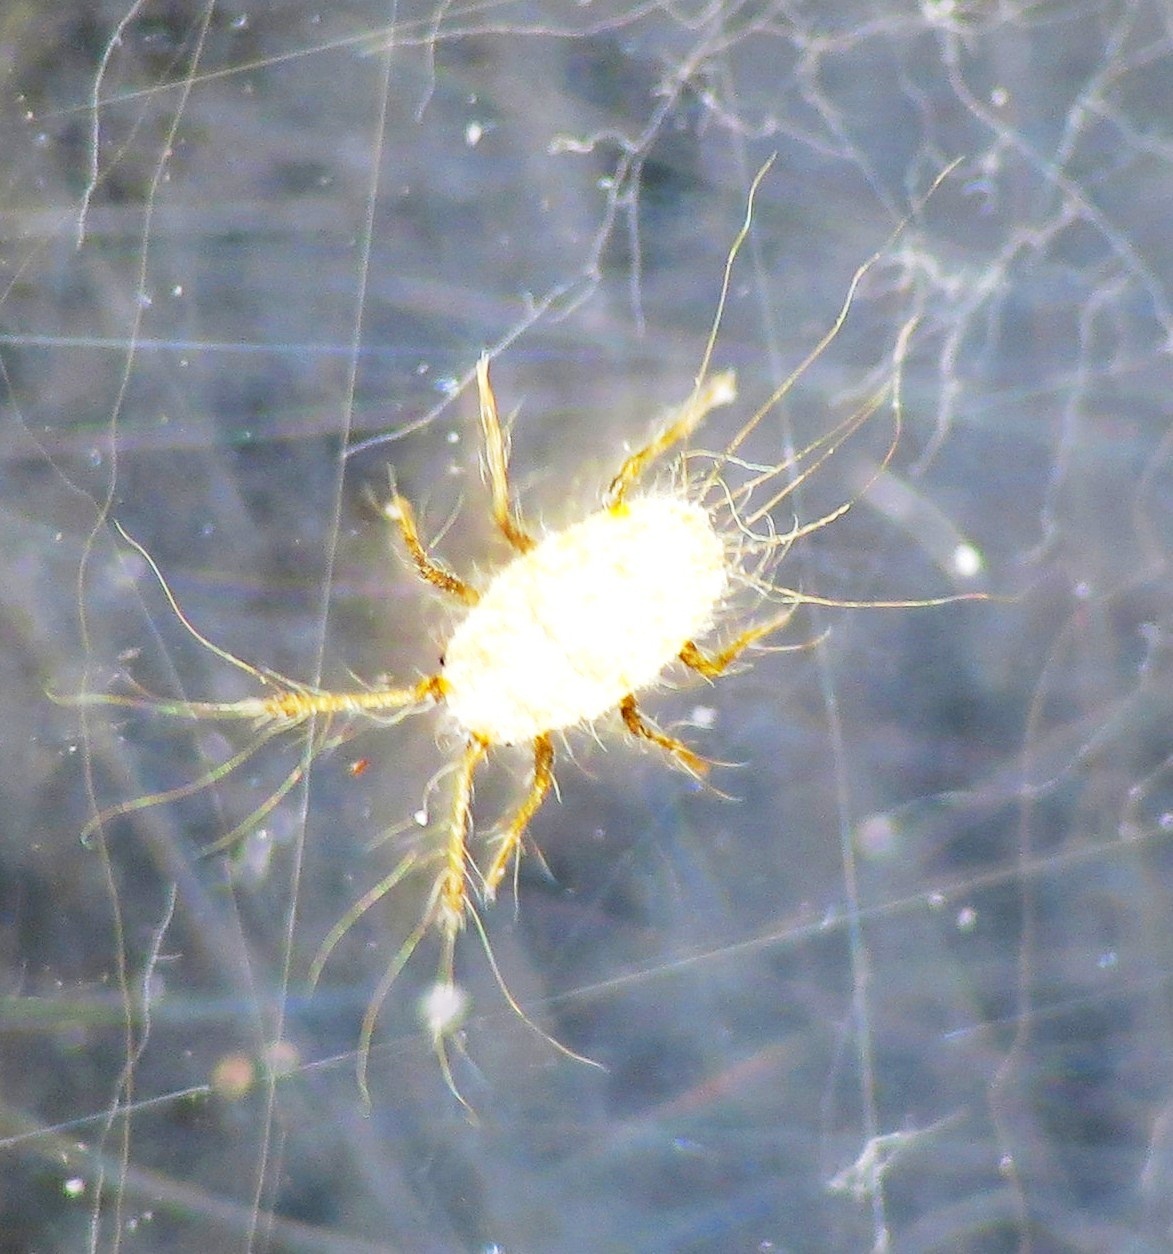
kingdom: Animalia
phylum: Arthropoda
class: Insecta
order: Hemiptera
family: Margarodidae
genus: Icerya
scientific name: Icerya seychellarum
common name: Iceplant scale
